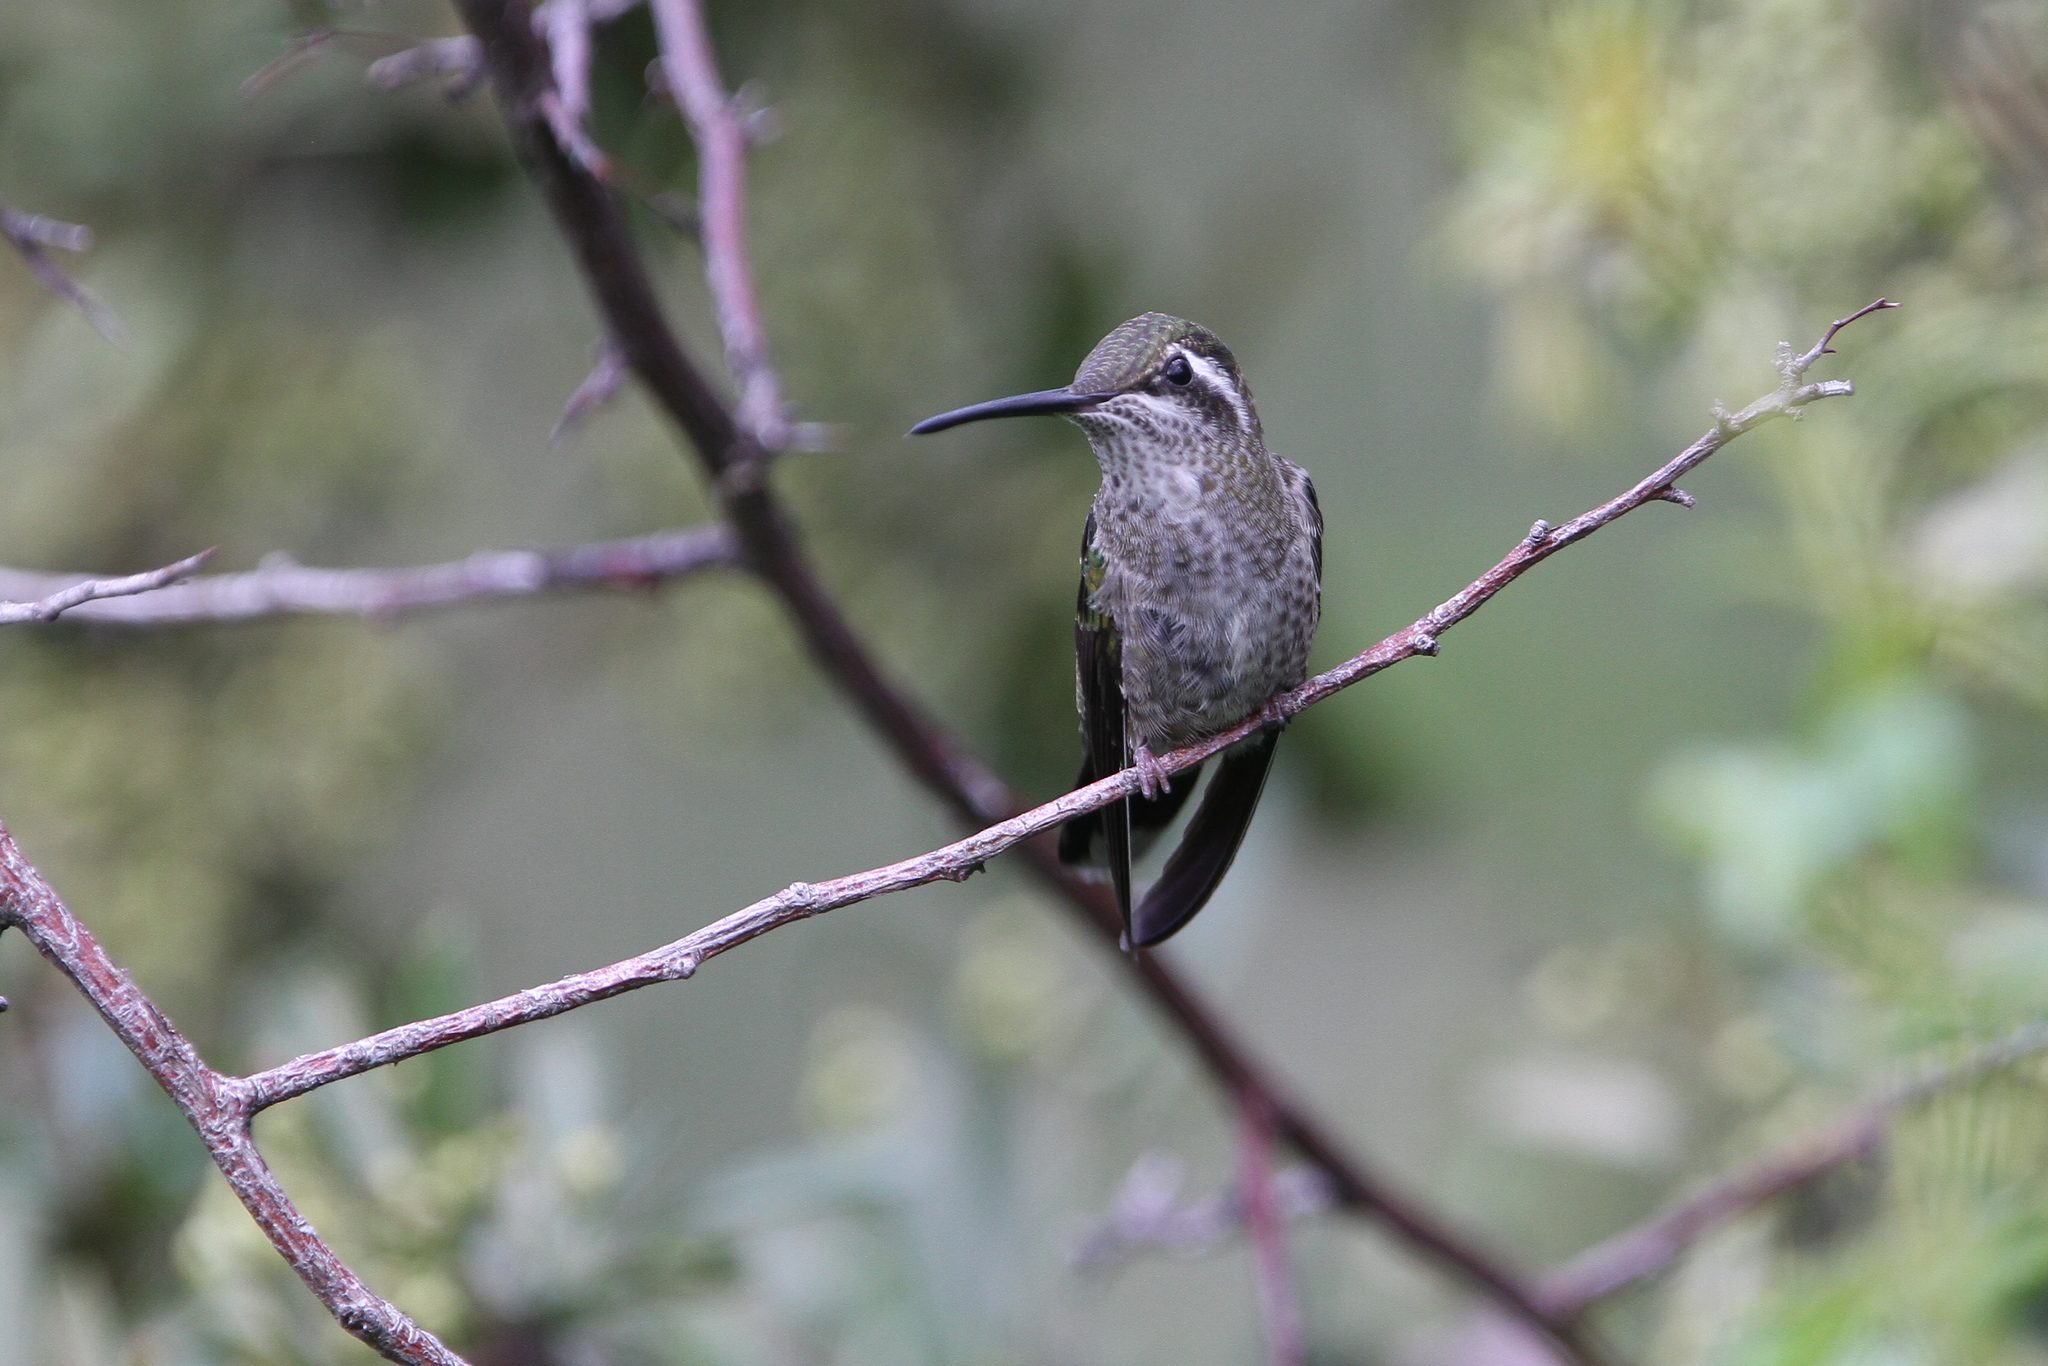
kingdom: Animalia
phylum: Chordata
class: Aves
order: Apodiformes
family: Trochilidae
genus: Eugenes
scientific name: Eugenes fulgens
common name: Magnificent hummingbird
